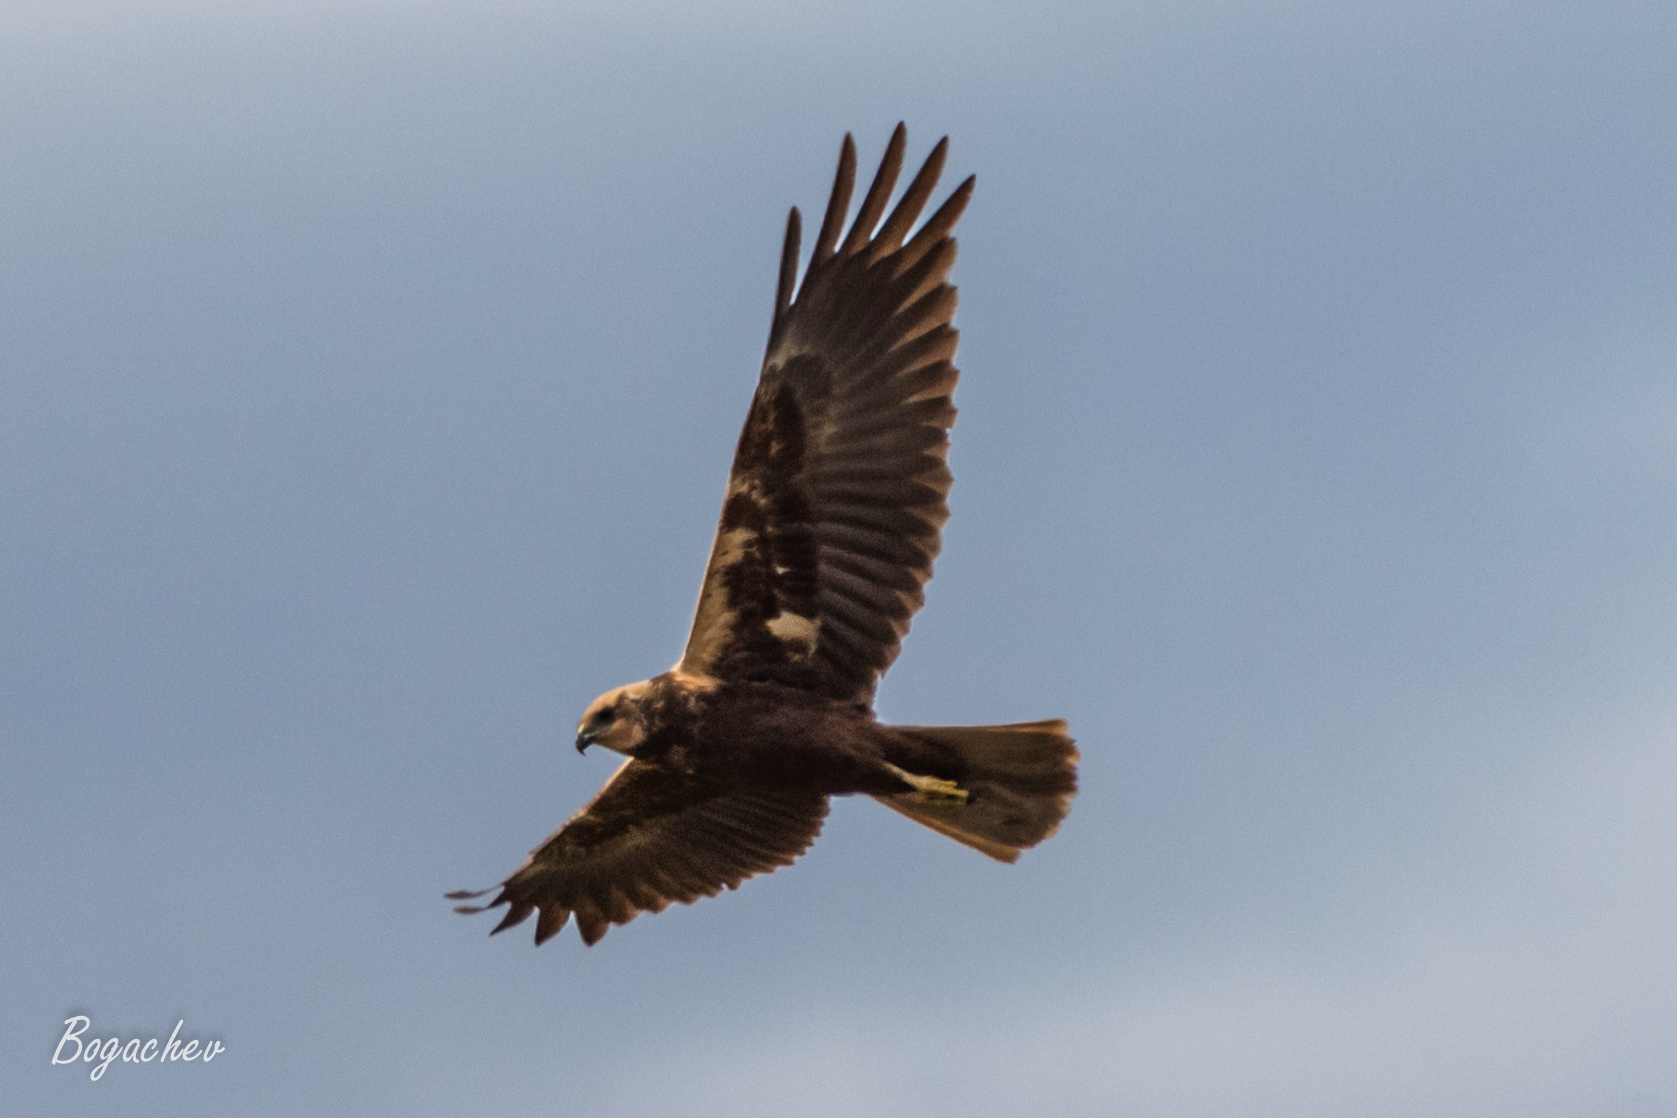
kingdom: Animalia
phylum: Chordata
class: Aves
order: Accipitriformes
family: Accipitridae
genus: Circus
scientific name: Circus aeruginosus
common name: Western marsh harrier
